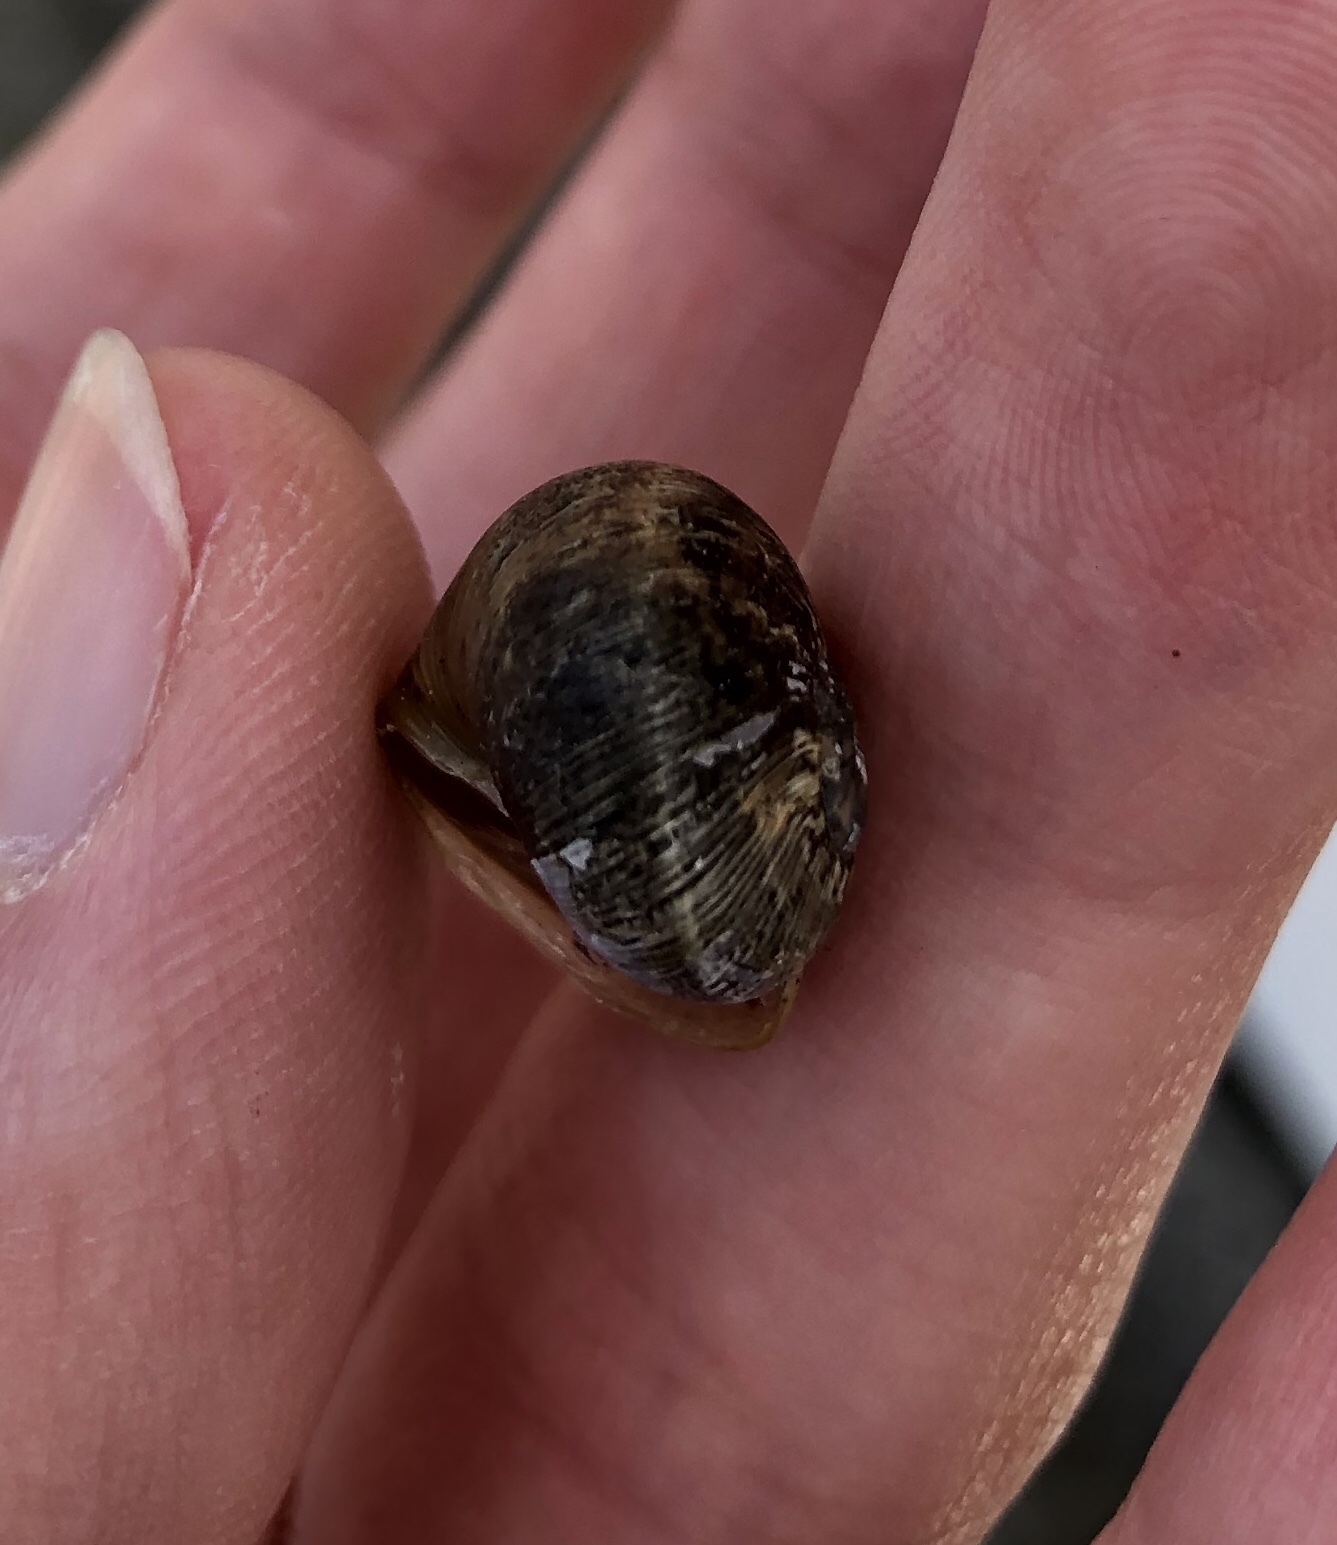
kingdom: Animalia
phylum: Mollusca
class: Gastropoda
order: Stylommatophora
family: Helicidae
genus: Cornu
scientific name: Cornu aspersum
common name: Brown garden snail
